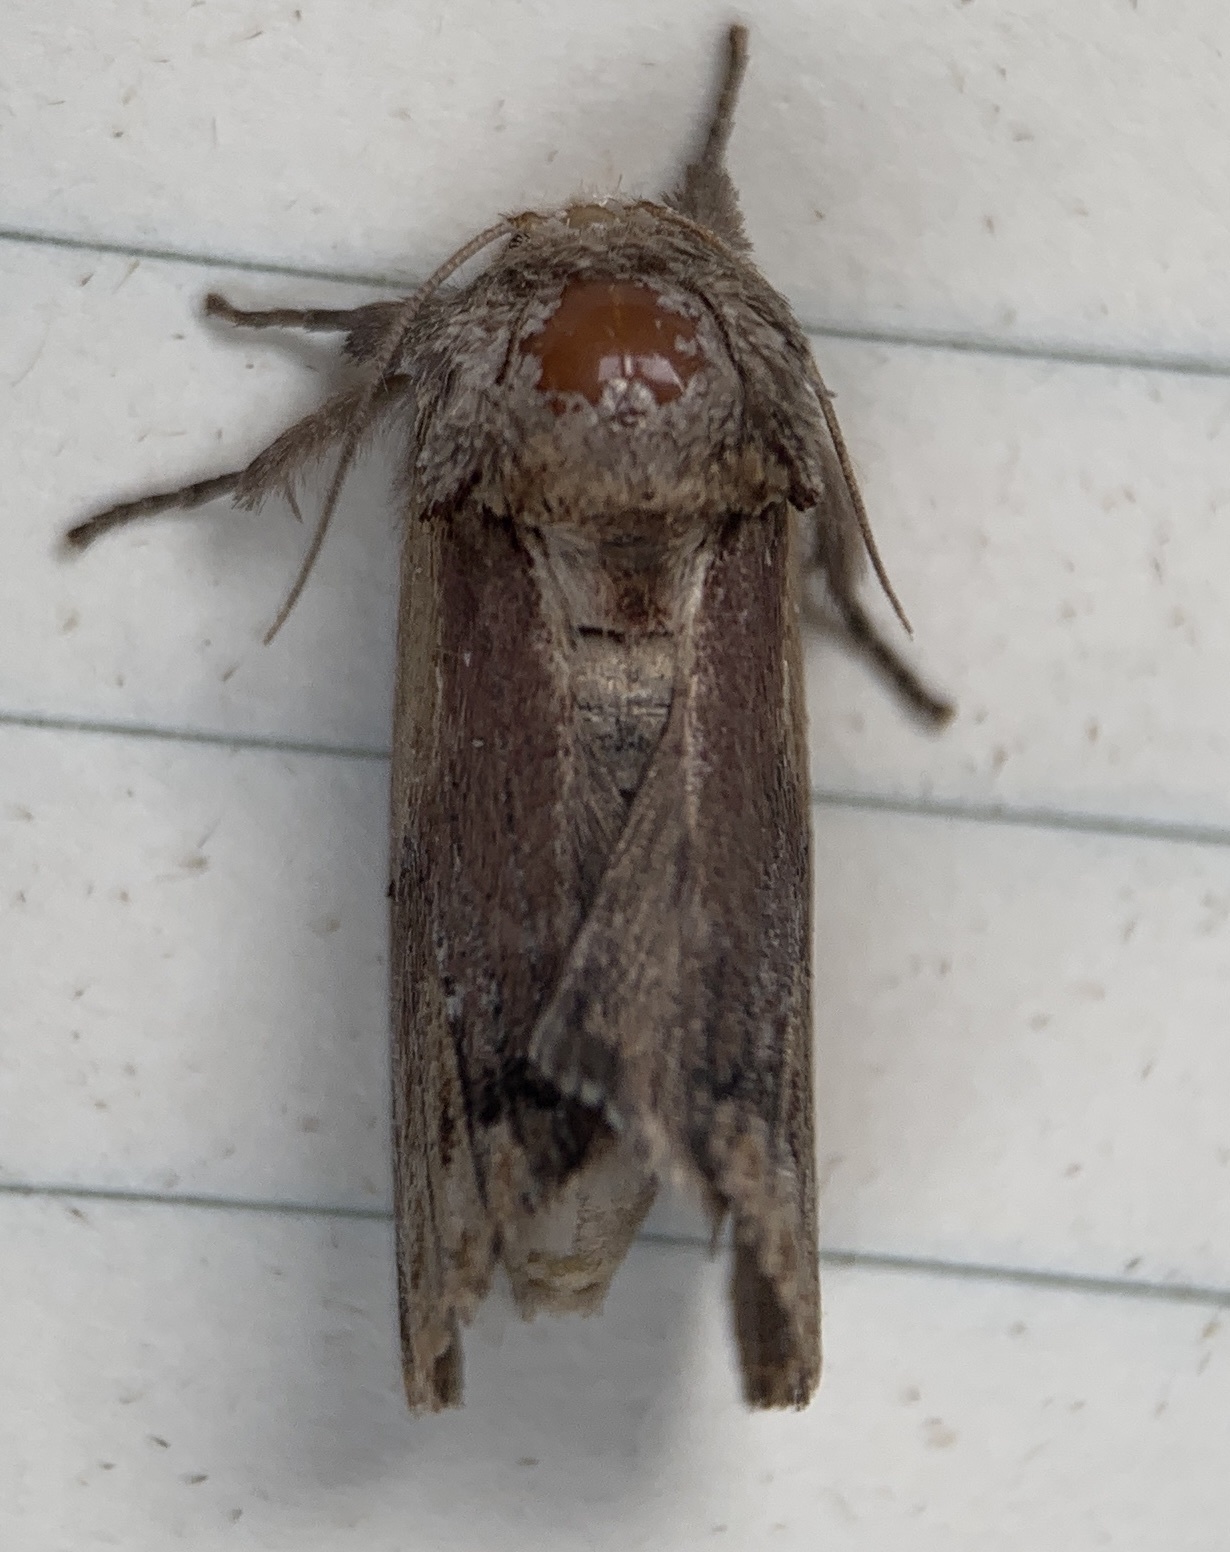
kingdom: Animalia
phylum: Arthropoda
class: Insecta
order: Lepidoptera
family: Notodontidae
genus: Schizura
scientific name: Schizura
